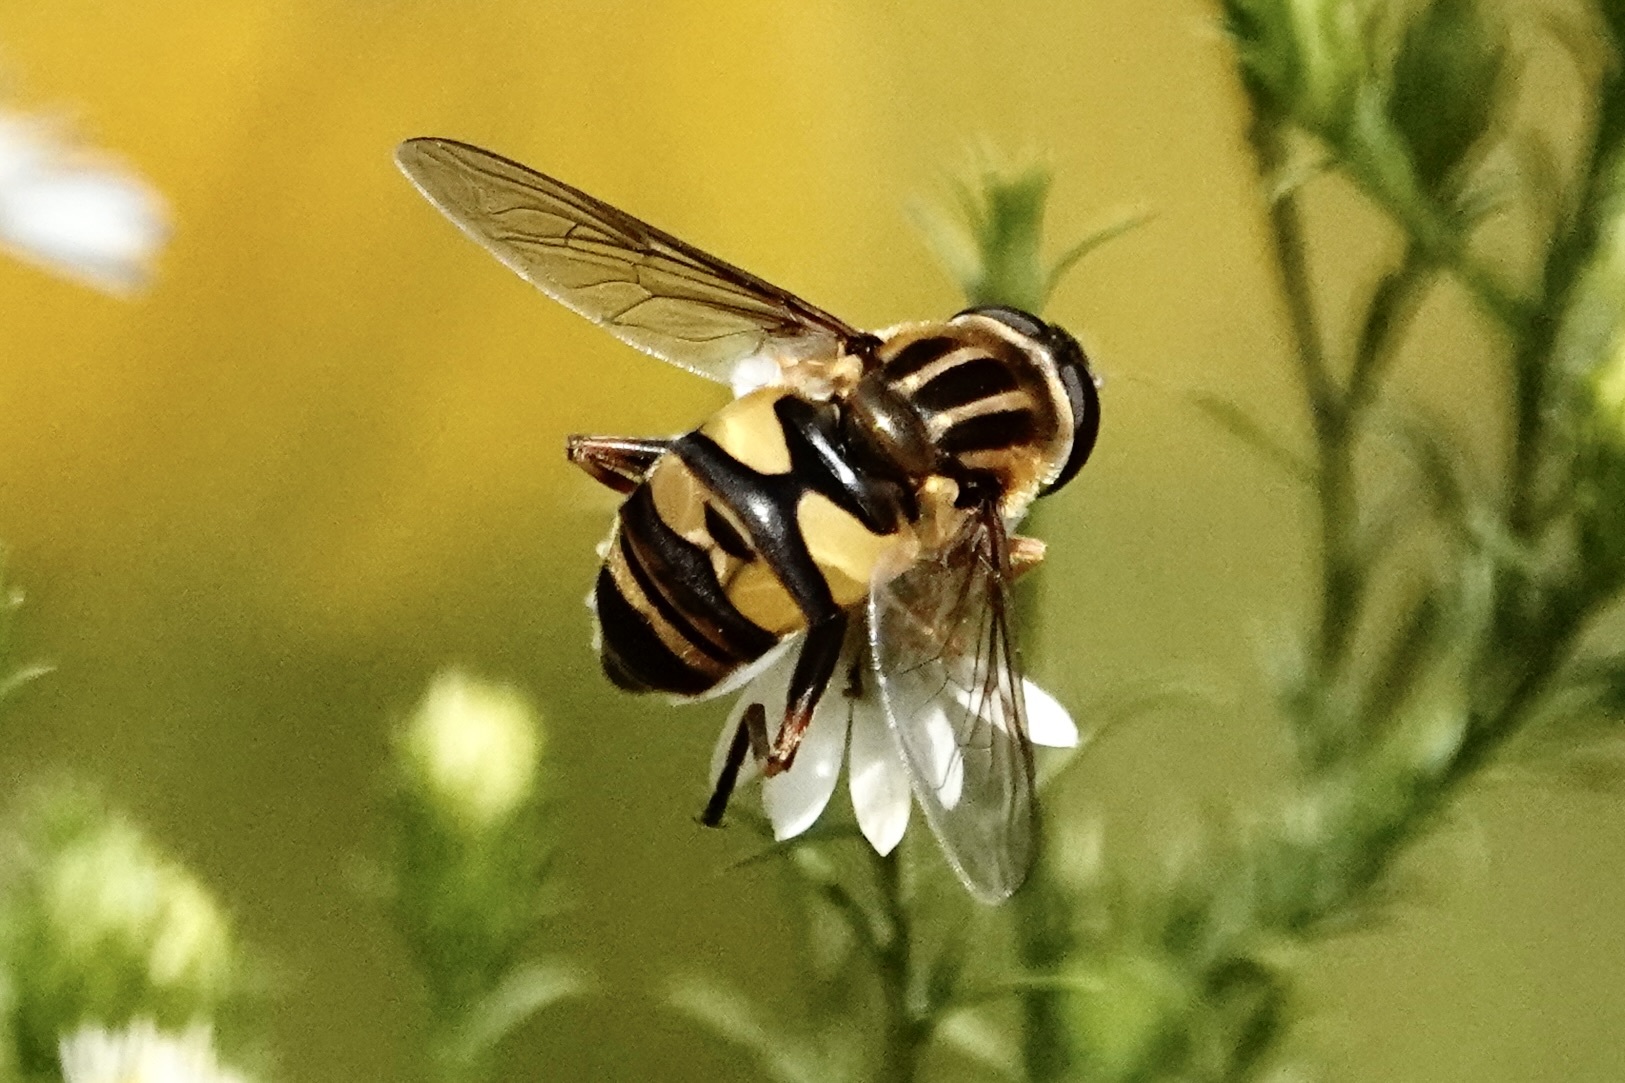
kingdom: Animalia
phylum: Arthropoda
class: Insecta
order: Diptera
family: Syrphidae
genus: Helophilus
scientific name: Helophilus fasciatus
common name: Narrow-headed marsh fly
